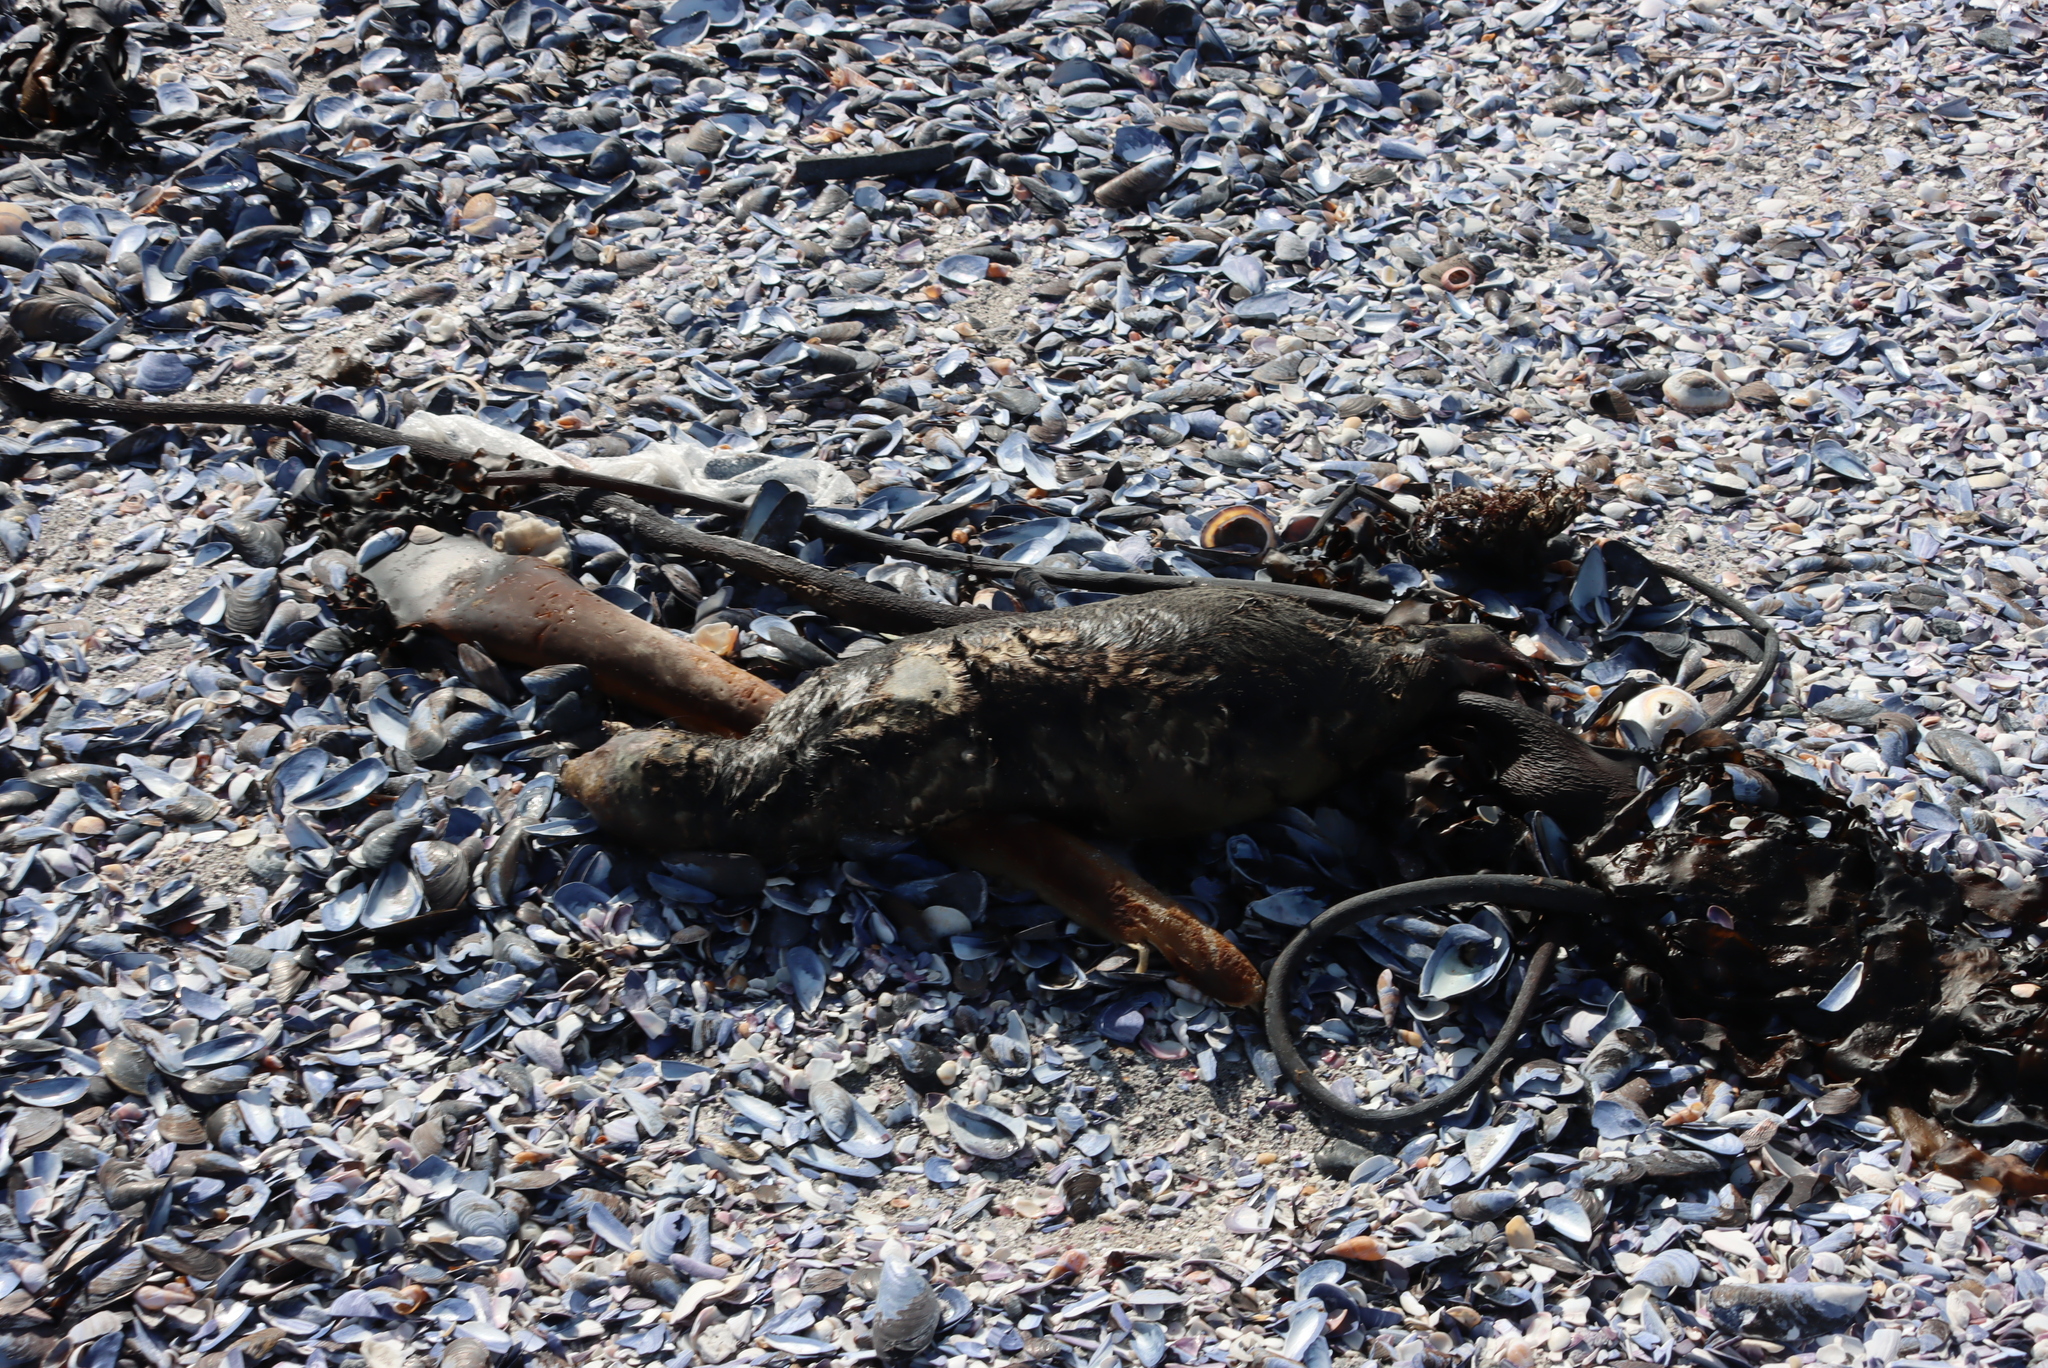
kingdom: Animalia
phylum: Chordata
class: Mammalia
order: Carnivora
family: Otariidae
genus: Arctocephalus
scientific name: Arctocephalus pusillus
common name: Brown fur seal
